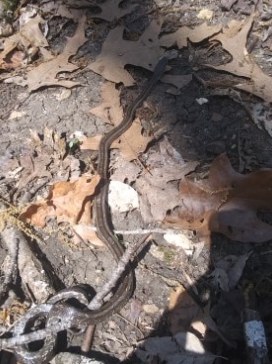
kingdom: Animalia
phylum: Chordata
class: Squamata
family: Colubridae
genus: Pantherophis
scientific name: Pantherophis spiloides
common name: Gray rat snake
